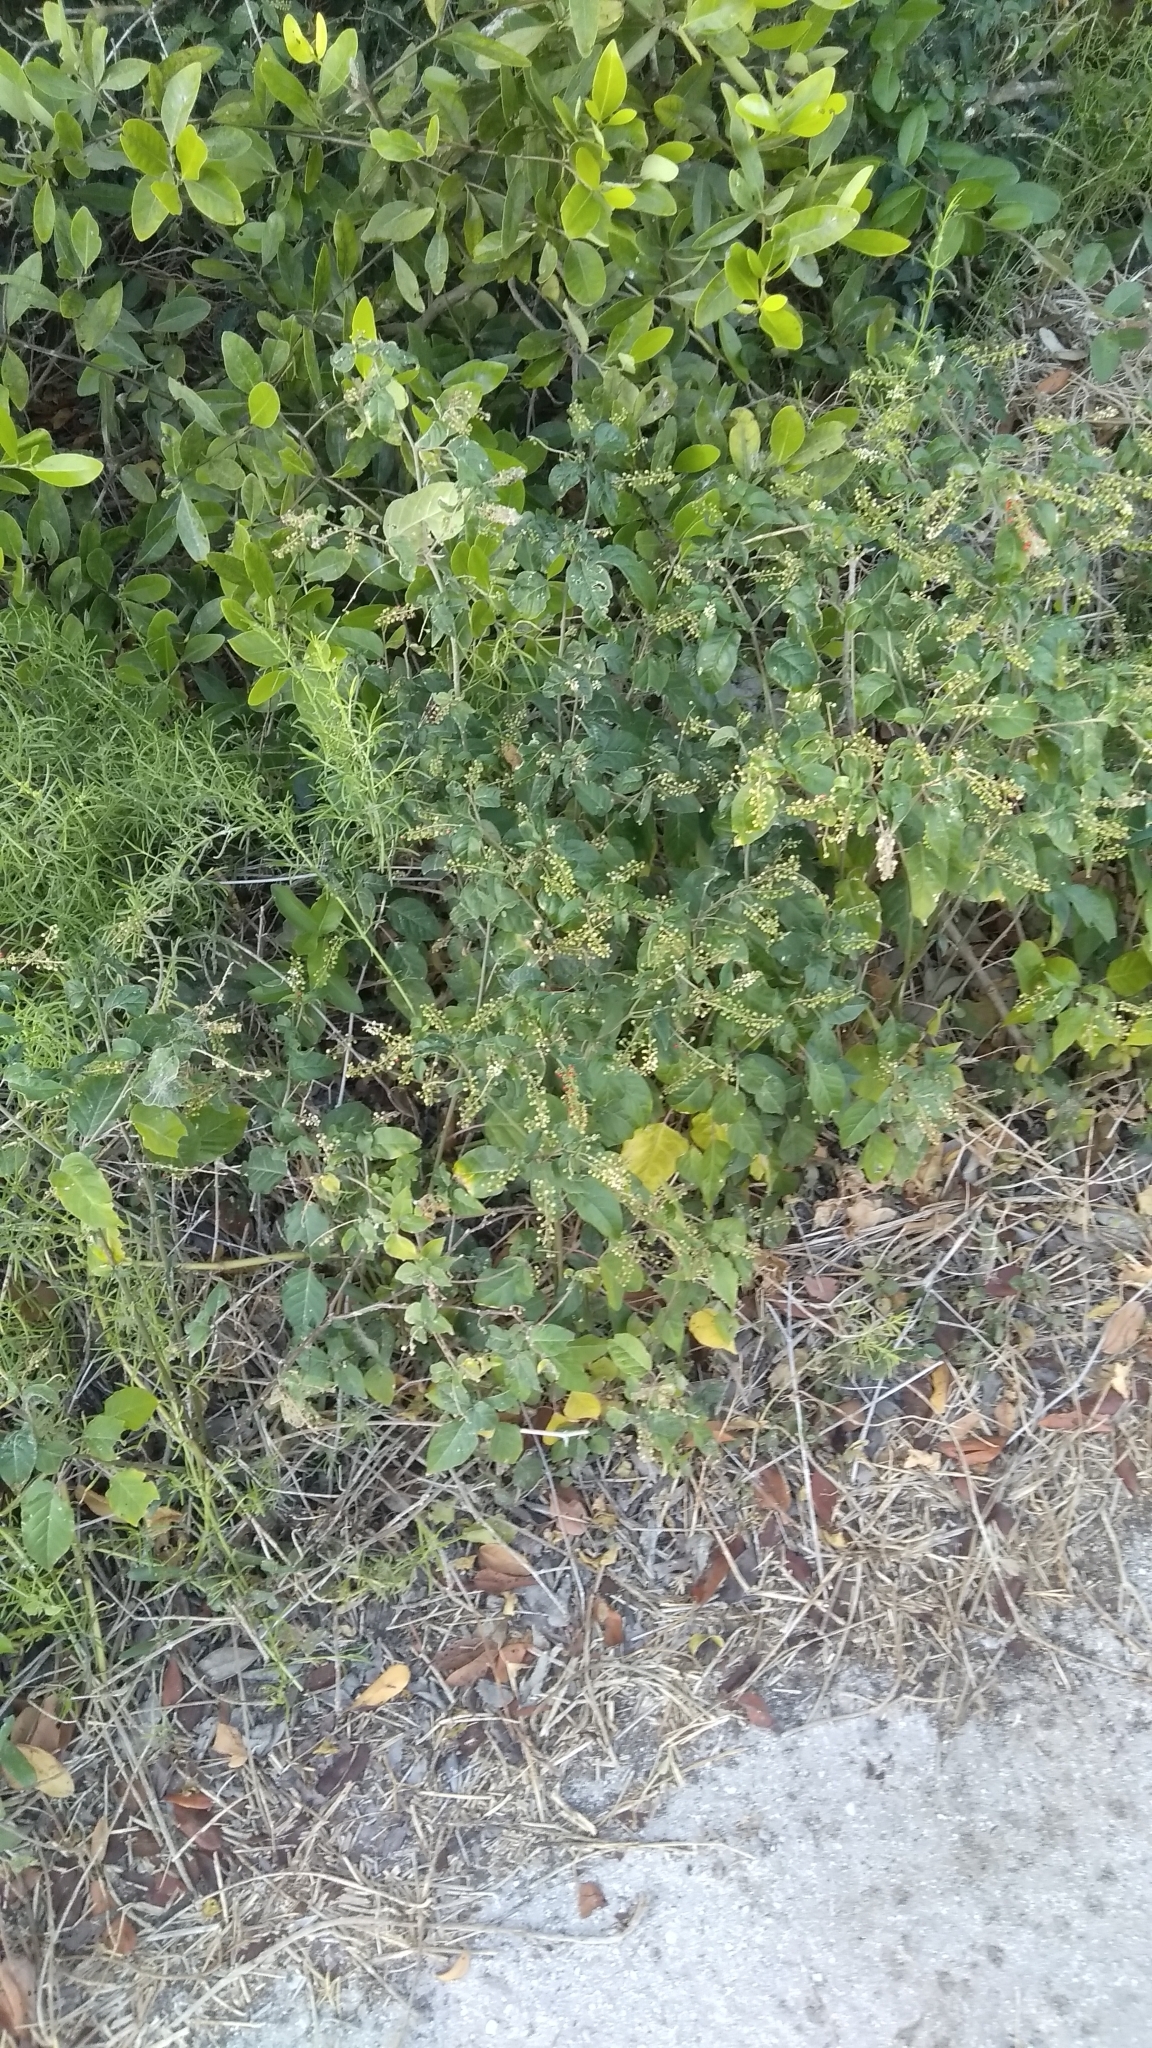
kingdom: Plantae
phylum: Tracheophyta
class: Magnoliopsida
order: Caryophyllales
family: Phytolaccaceae
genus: Rivina
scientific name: Rivina humilis
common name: Rougeplant
